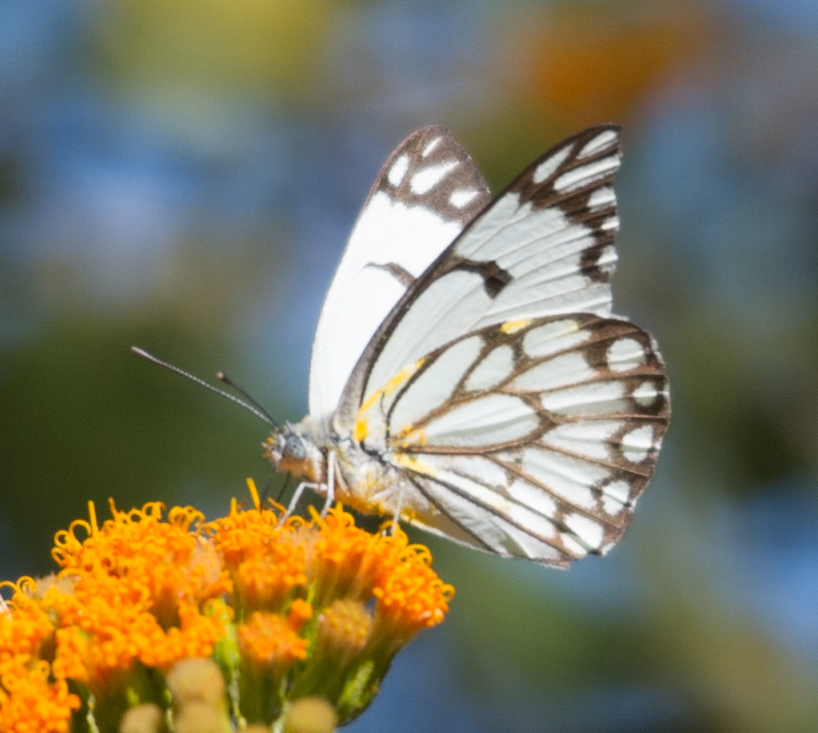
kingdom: Animalia
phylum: Arthropoda
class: Insecta
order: Lepidoptera
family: Pieridae
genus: Belenois
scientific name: Belenois aurota
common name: Brown-veined white
